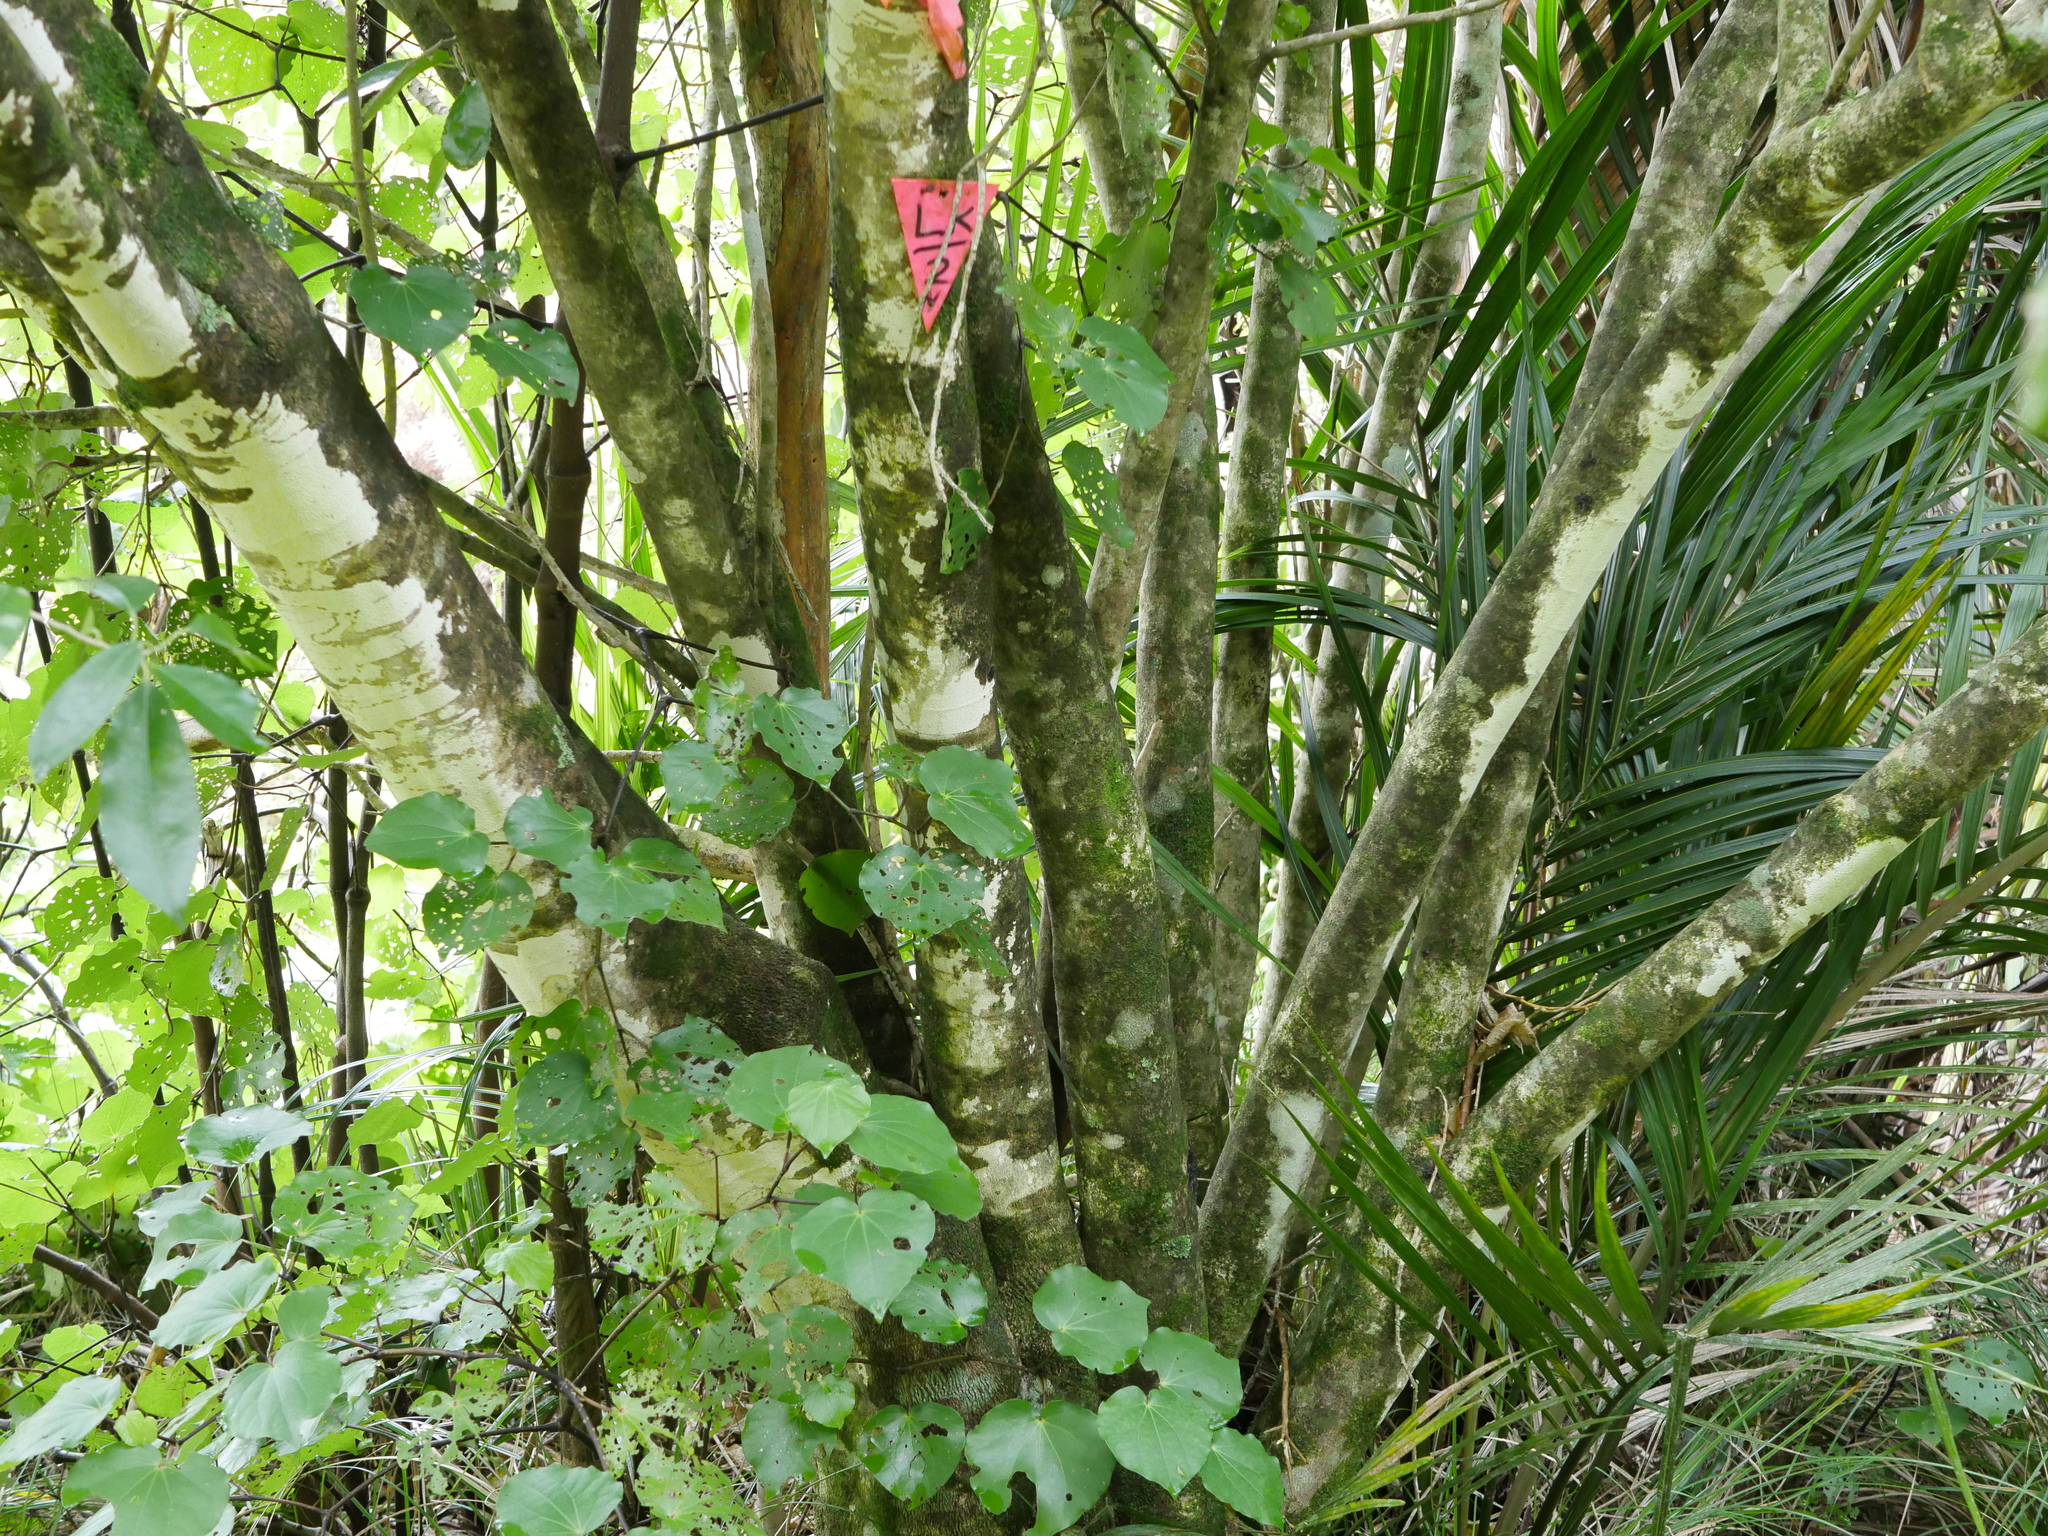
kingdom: Plantae
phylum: Tracheophyta
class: Magnoliopsida
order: Malpighiales
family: Violaceae
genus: Melicytus
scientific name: Melicytus ramiflorus
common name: Mahoe
